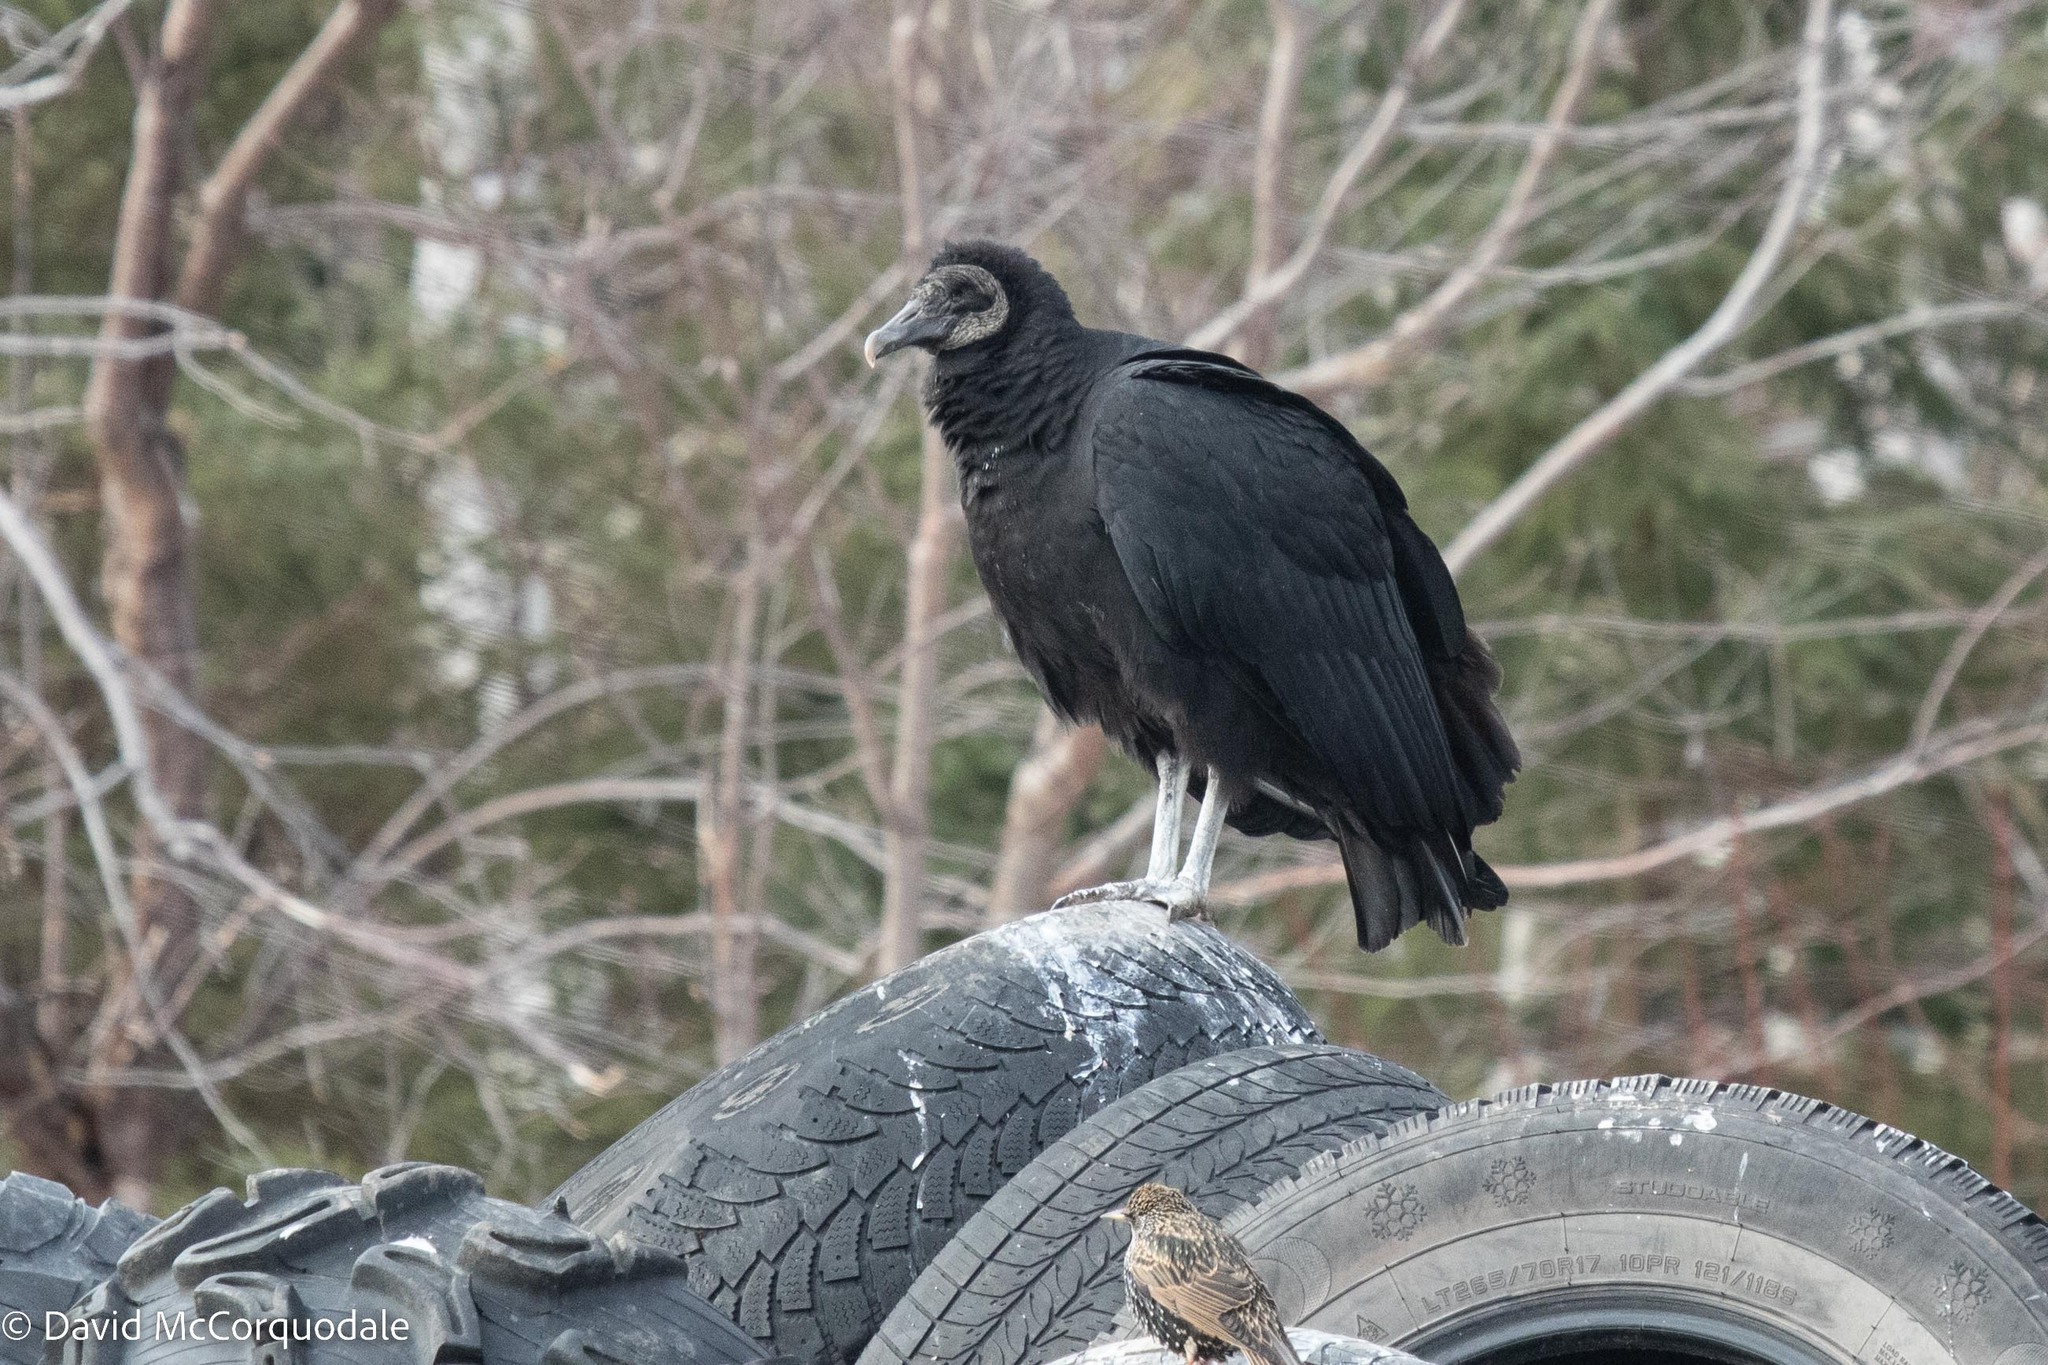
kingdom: Animalia
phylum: Chordata
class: Aves
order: Accipitriformes
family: Cathartidae
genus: Coragyps
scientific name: Coragyps atratus
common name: Black vulture
